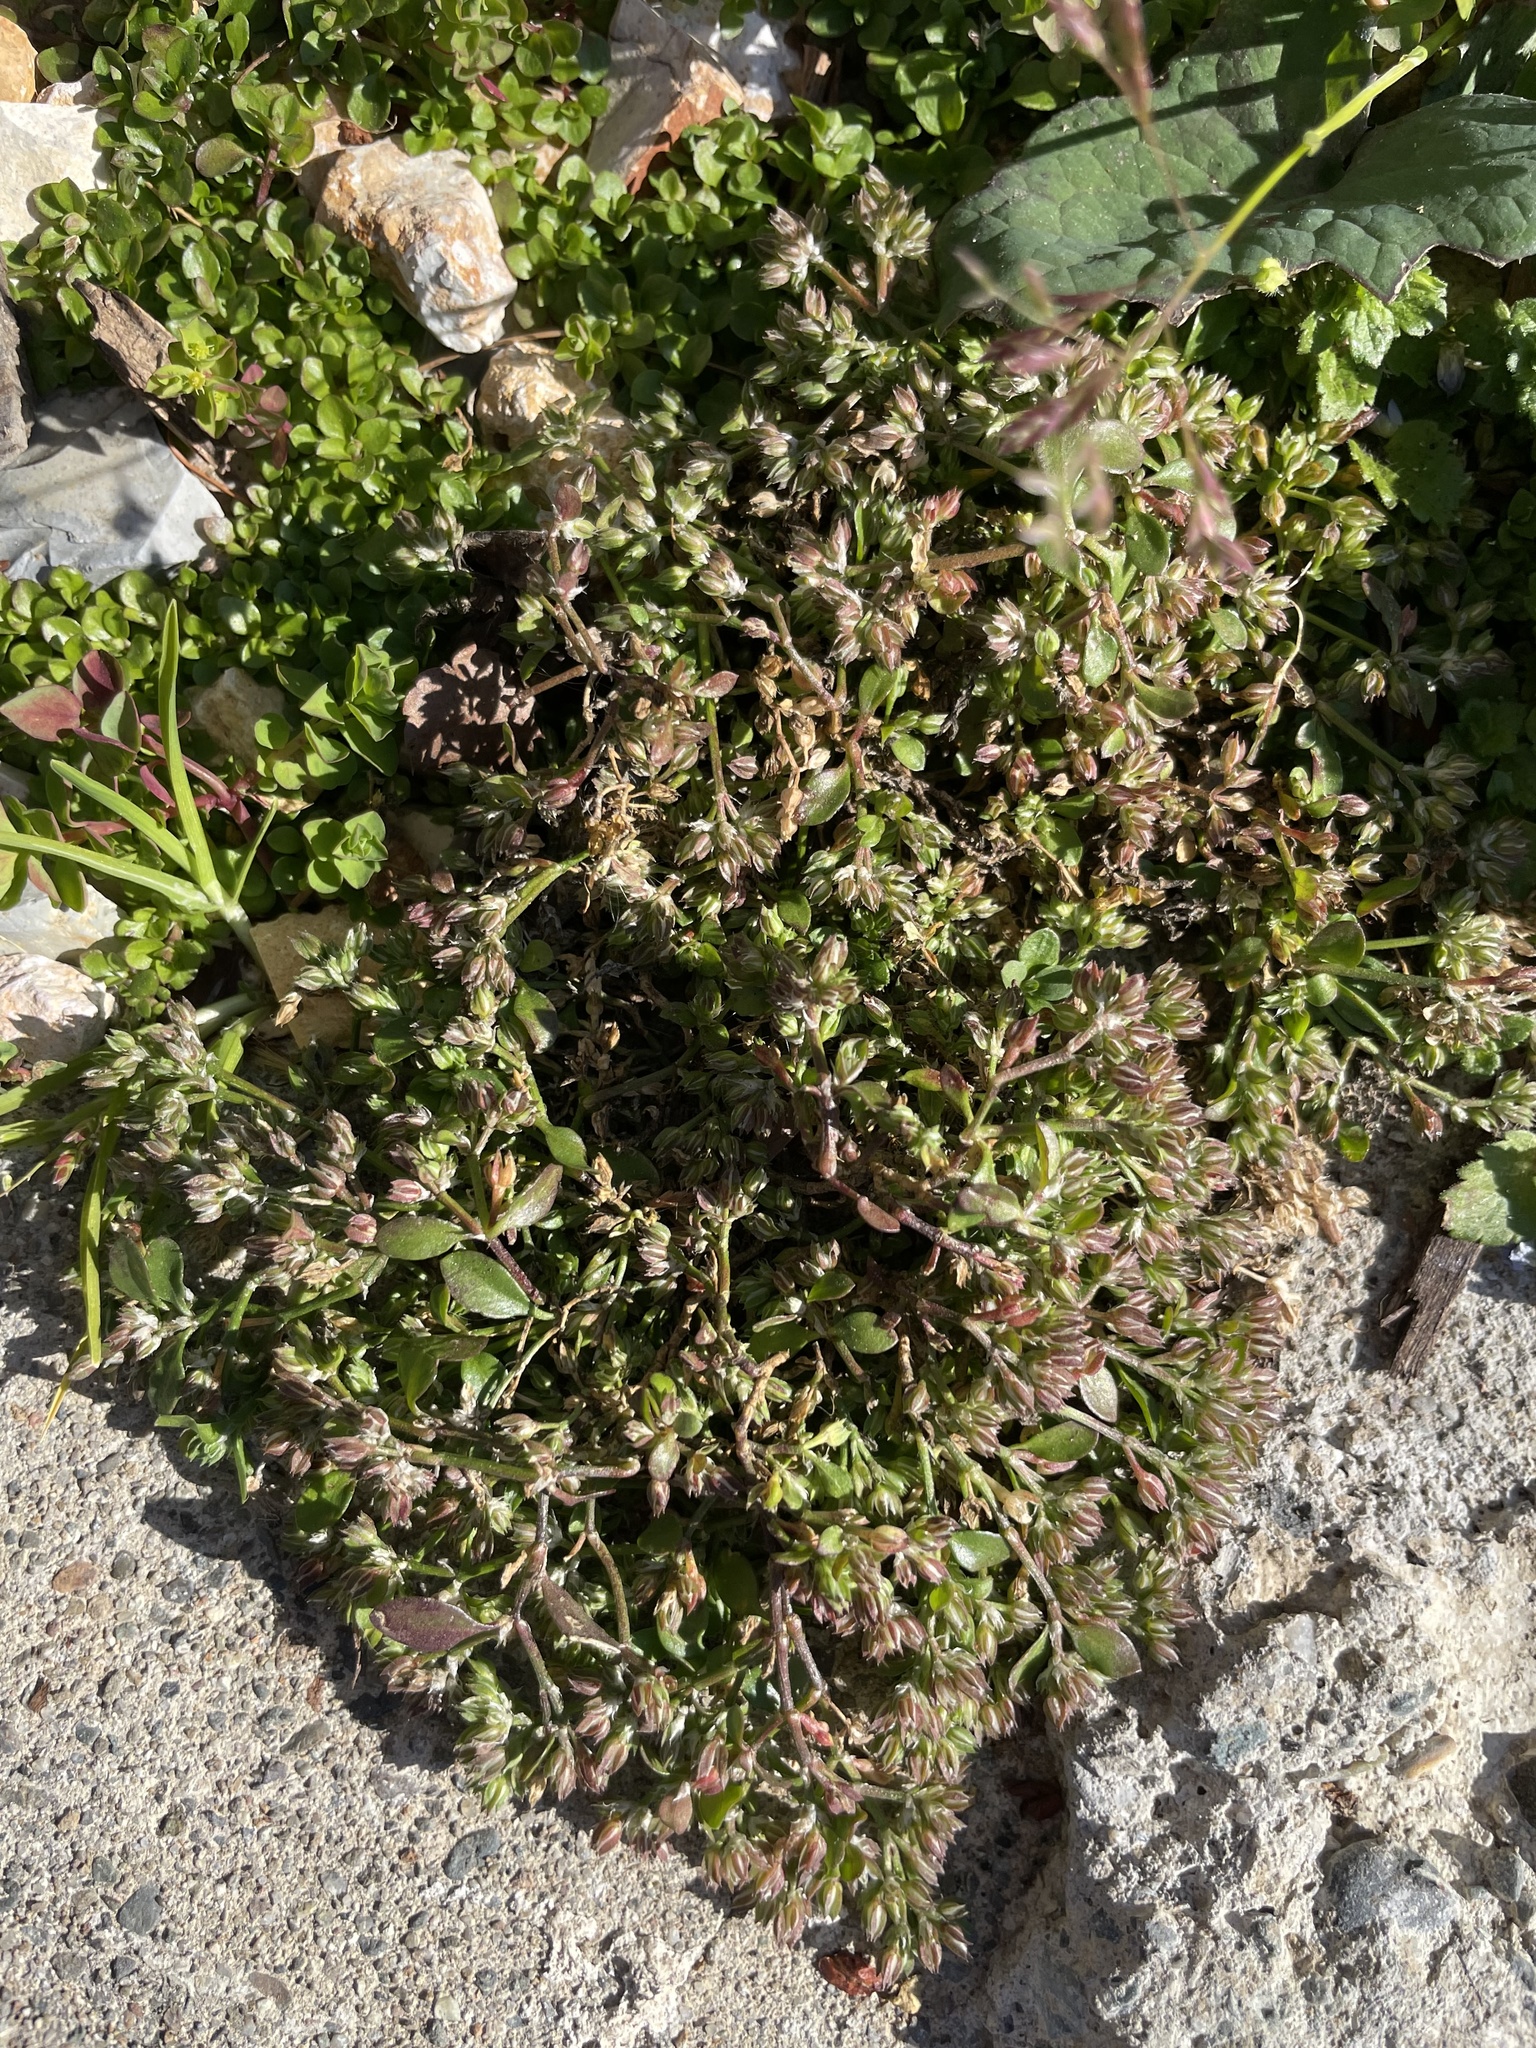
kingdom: Plantae
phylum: Tracheophyta
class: Magnoliopsida
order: Caryophyllales
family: Caryophyllaceae
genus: Polycarpon
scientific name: Polycarpon tetraphyllum
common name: Four-leaved all-seed
